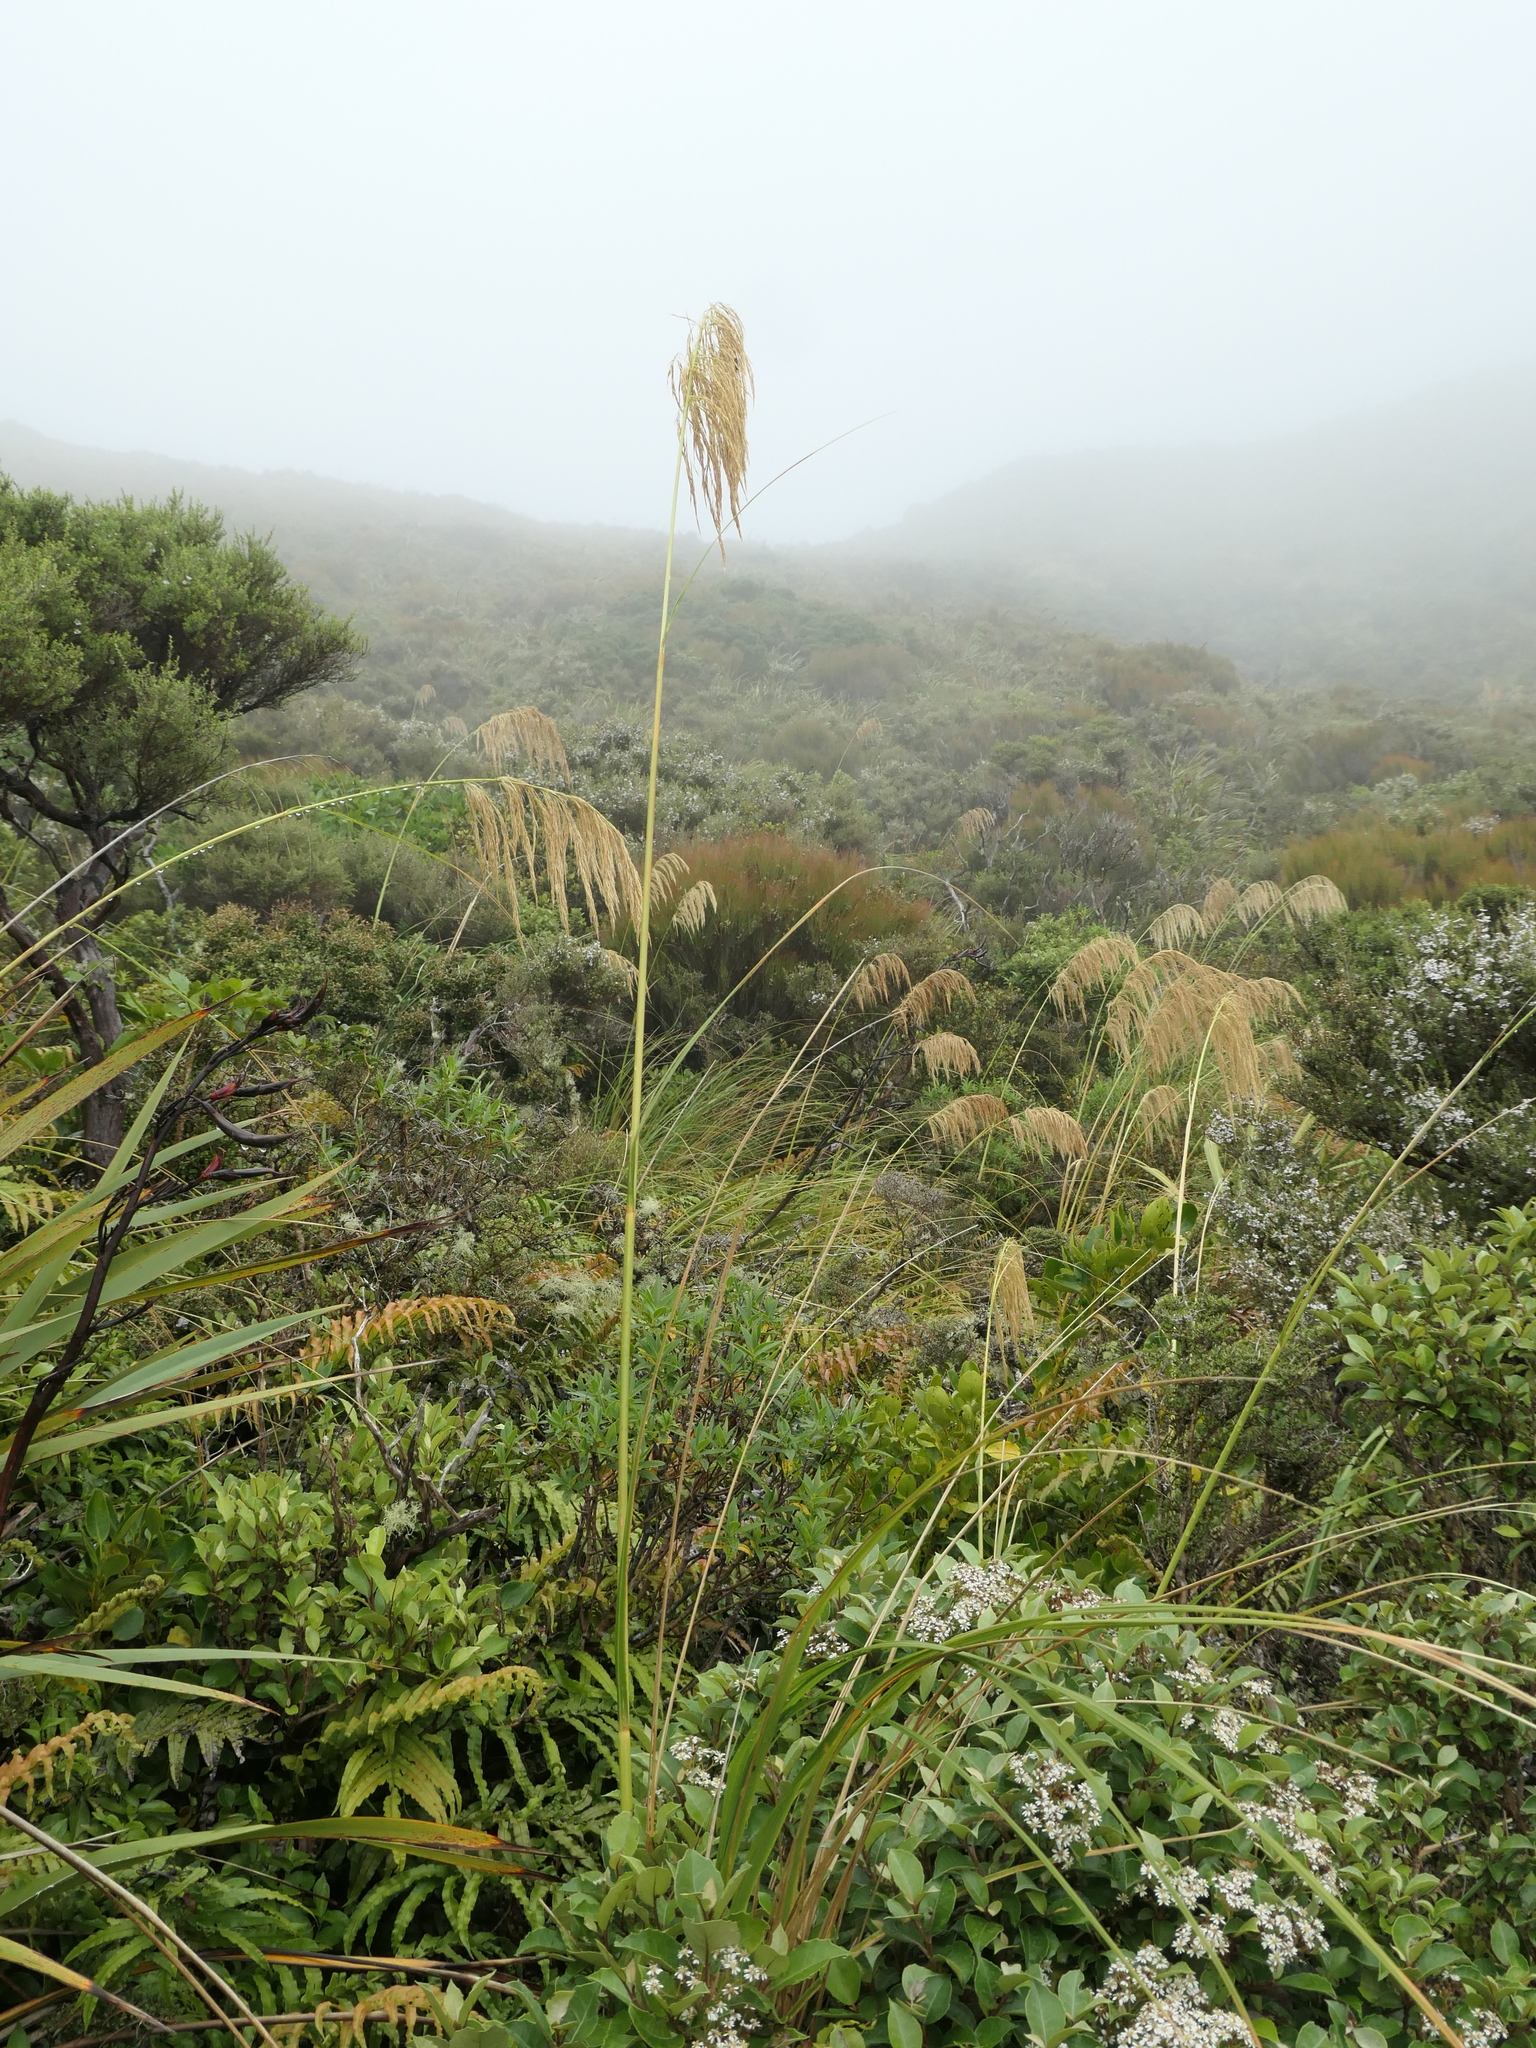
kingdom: Plantae
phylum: Tracheophyta
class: Liliopsida
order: Poales
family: Poaceae
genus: Austroderia
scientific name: Austroderia fulvida
